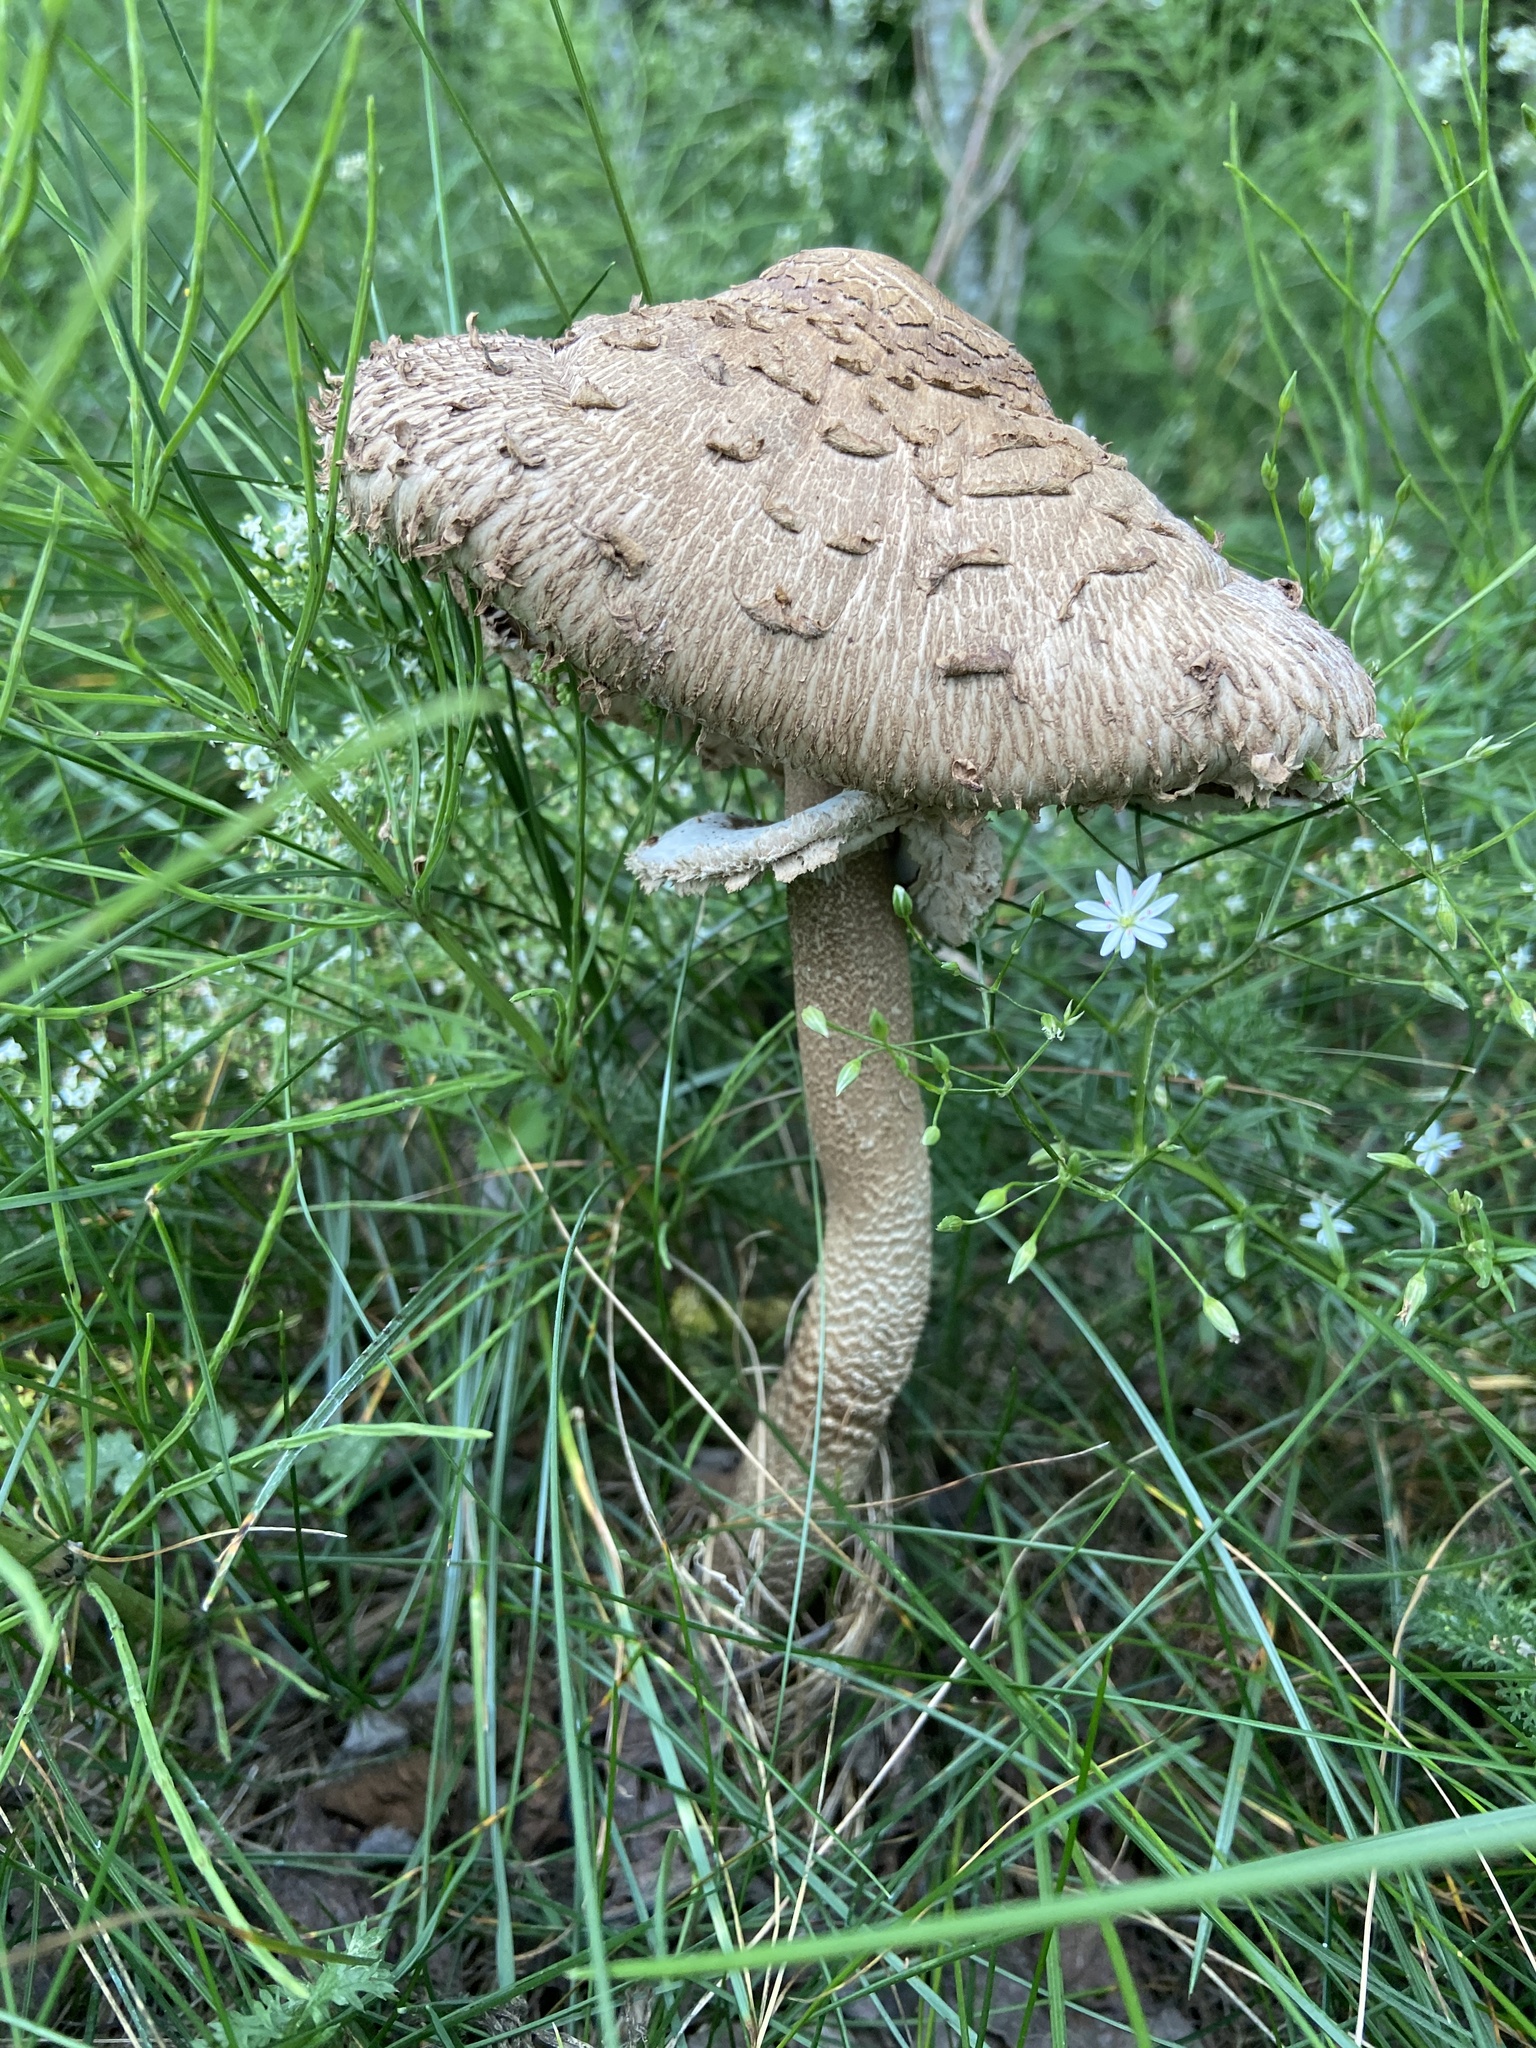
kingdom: Fungi
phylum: Basidiomycota
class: Agaricomycetes
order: Agaricales
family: Agaricaceae
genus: Macrolepiota
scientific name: Macrolepiota procera
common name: Parasol
